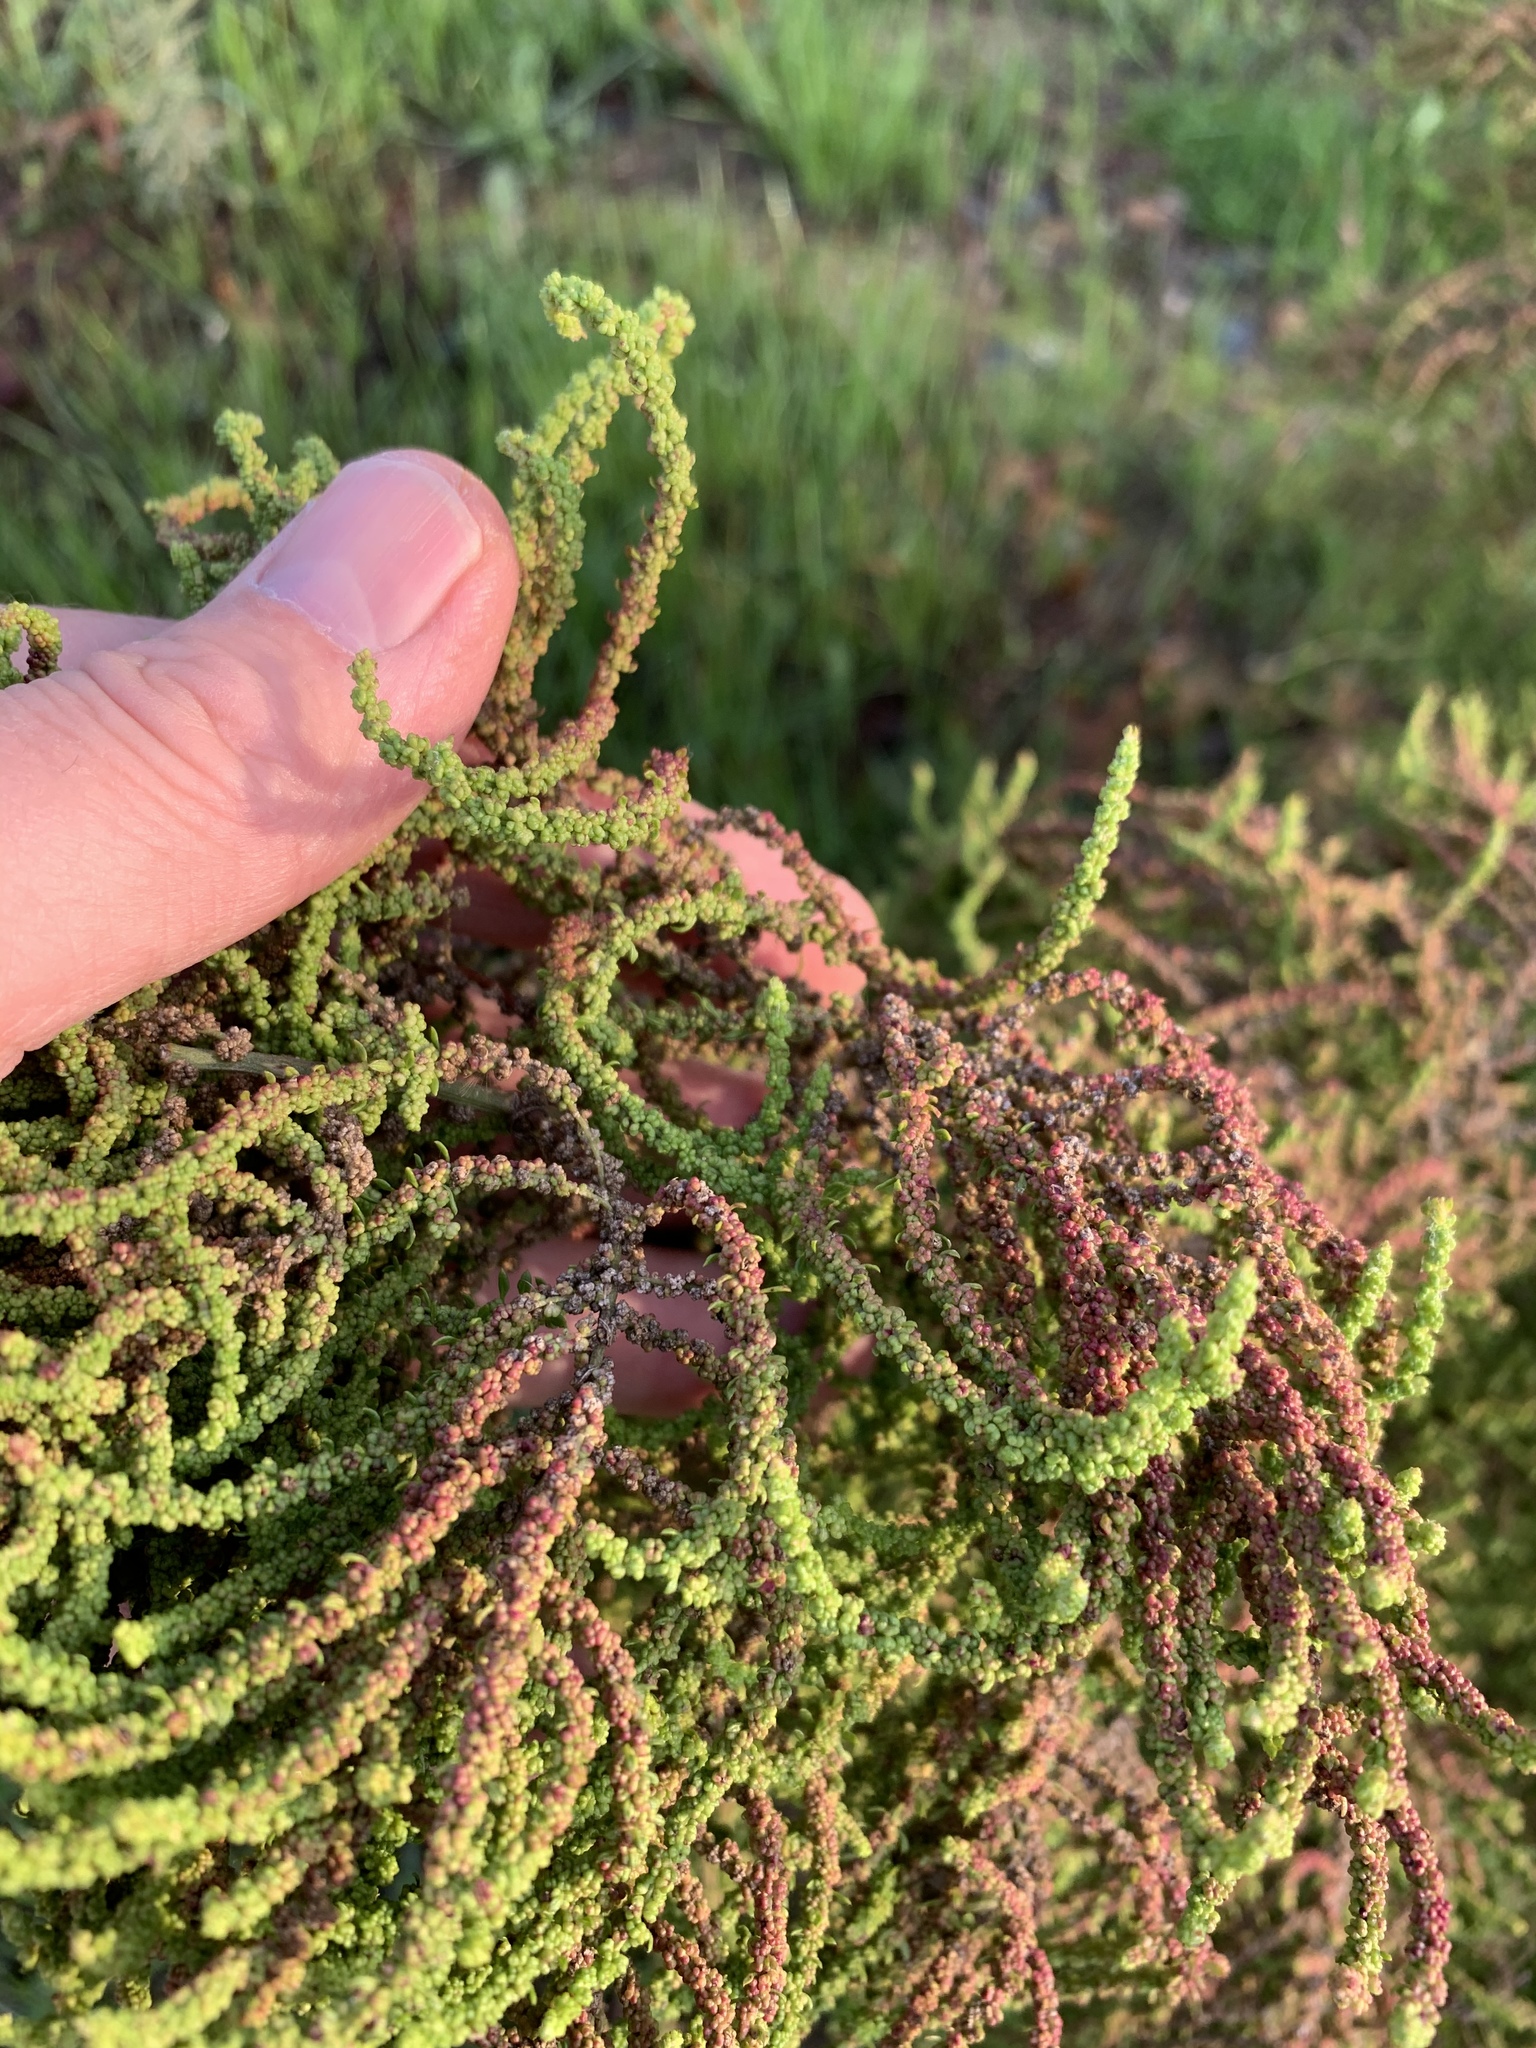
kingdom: Plantae
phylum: Tracheophyta
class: Magnoliopsida
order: Caryophyllales
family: Amaranthaceae
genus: Dysphania
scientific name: Dysphania ambrosioides
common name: Wormseed
